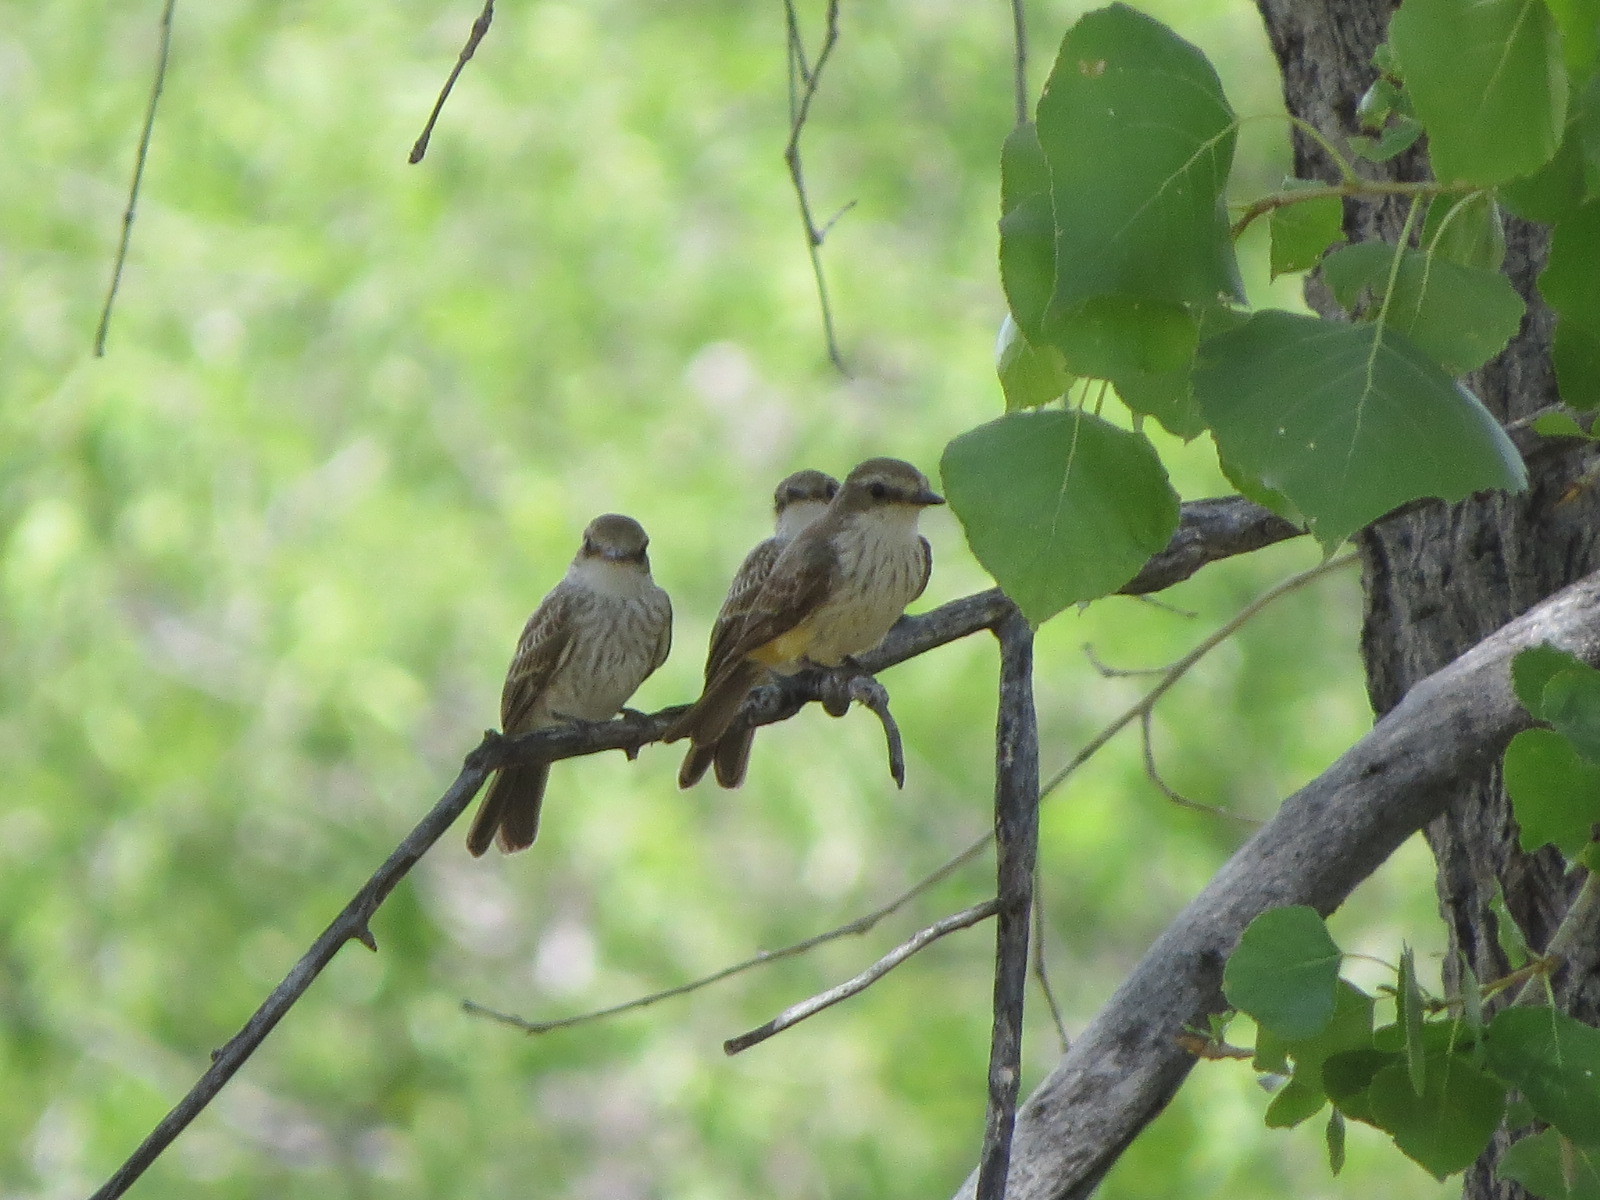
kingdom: Animalia
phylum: Chordata
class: Aves
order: Passeriformes
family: Tyrannidae
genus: Pyrocephalus
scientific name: Pyrocephalus rubinus
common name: Vermilion flycatcher
